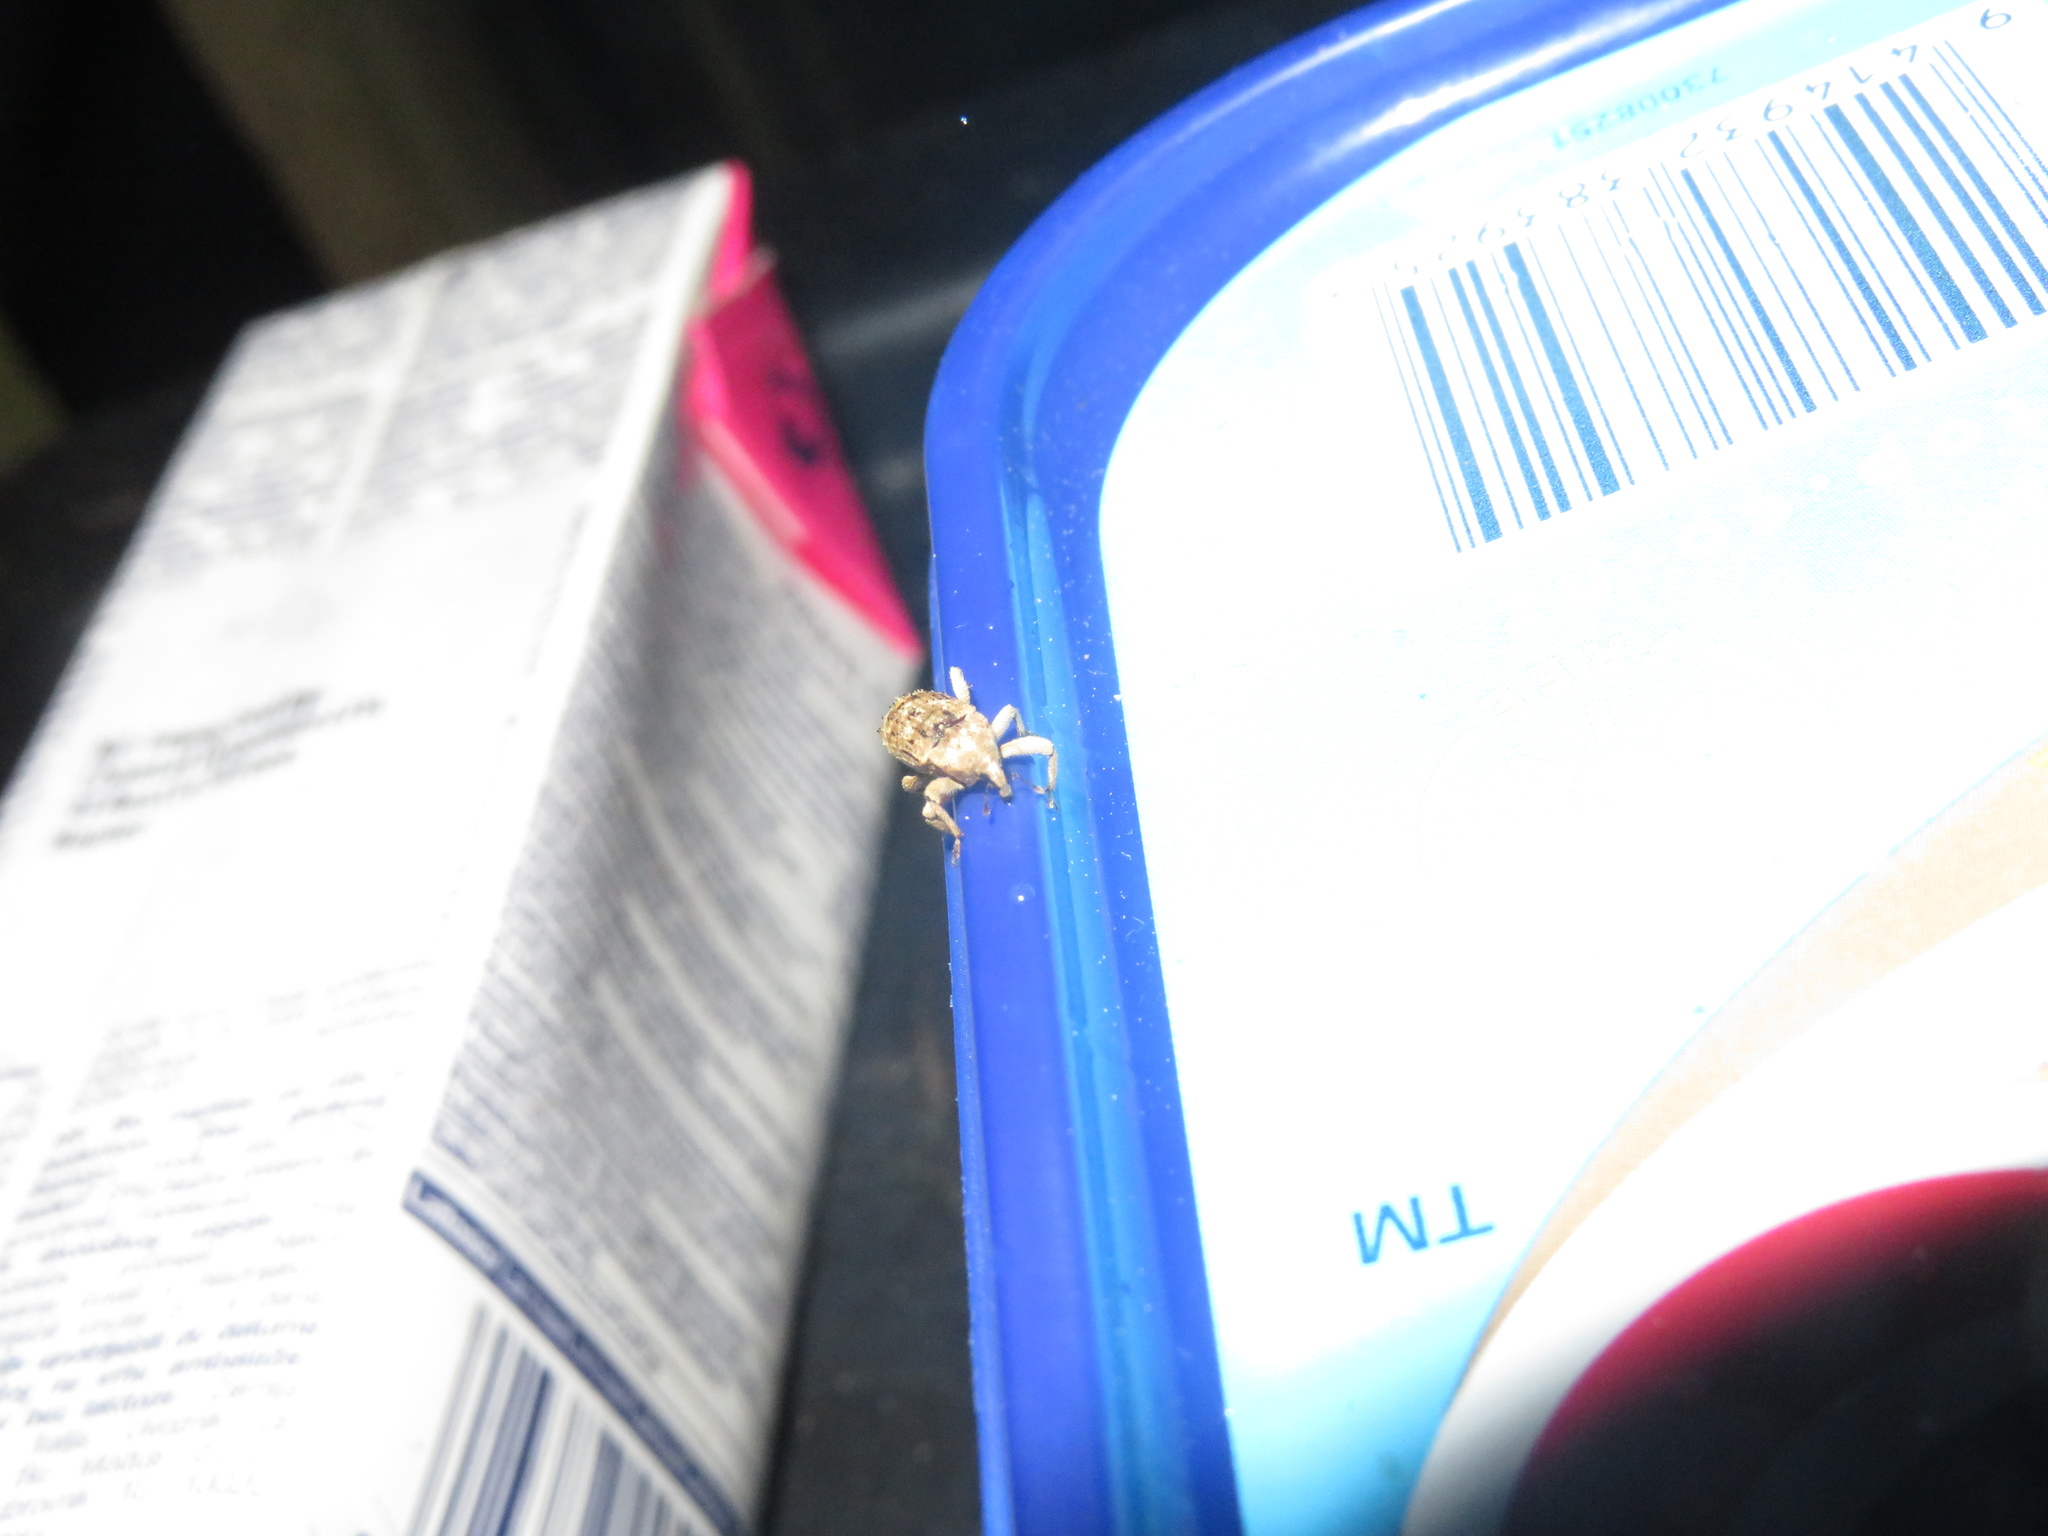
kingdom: Animalia
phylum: Arthropoda
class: Insecta
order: Coleoptera
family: Curculionidae
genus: Mitrastethus
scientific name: Mitrastethus baridioides
